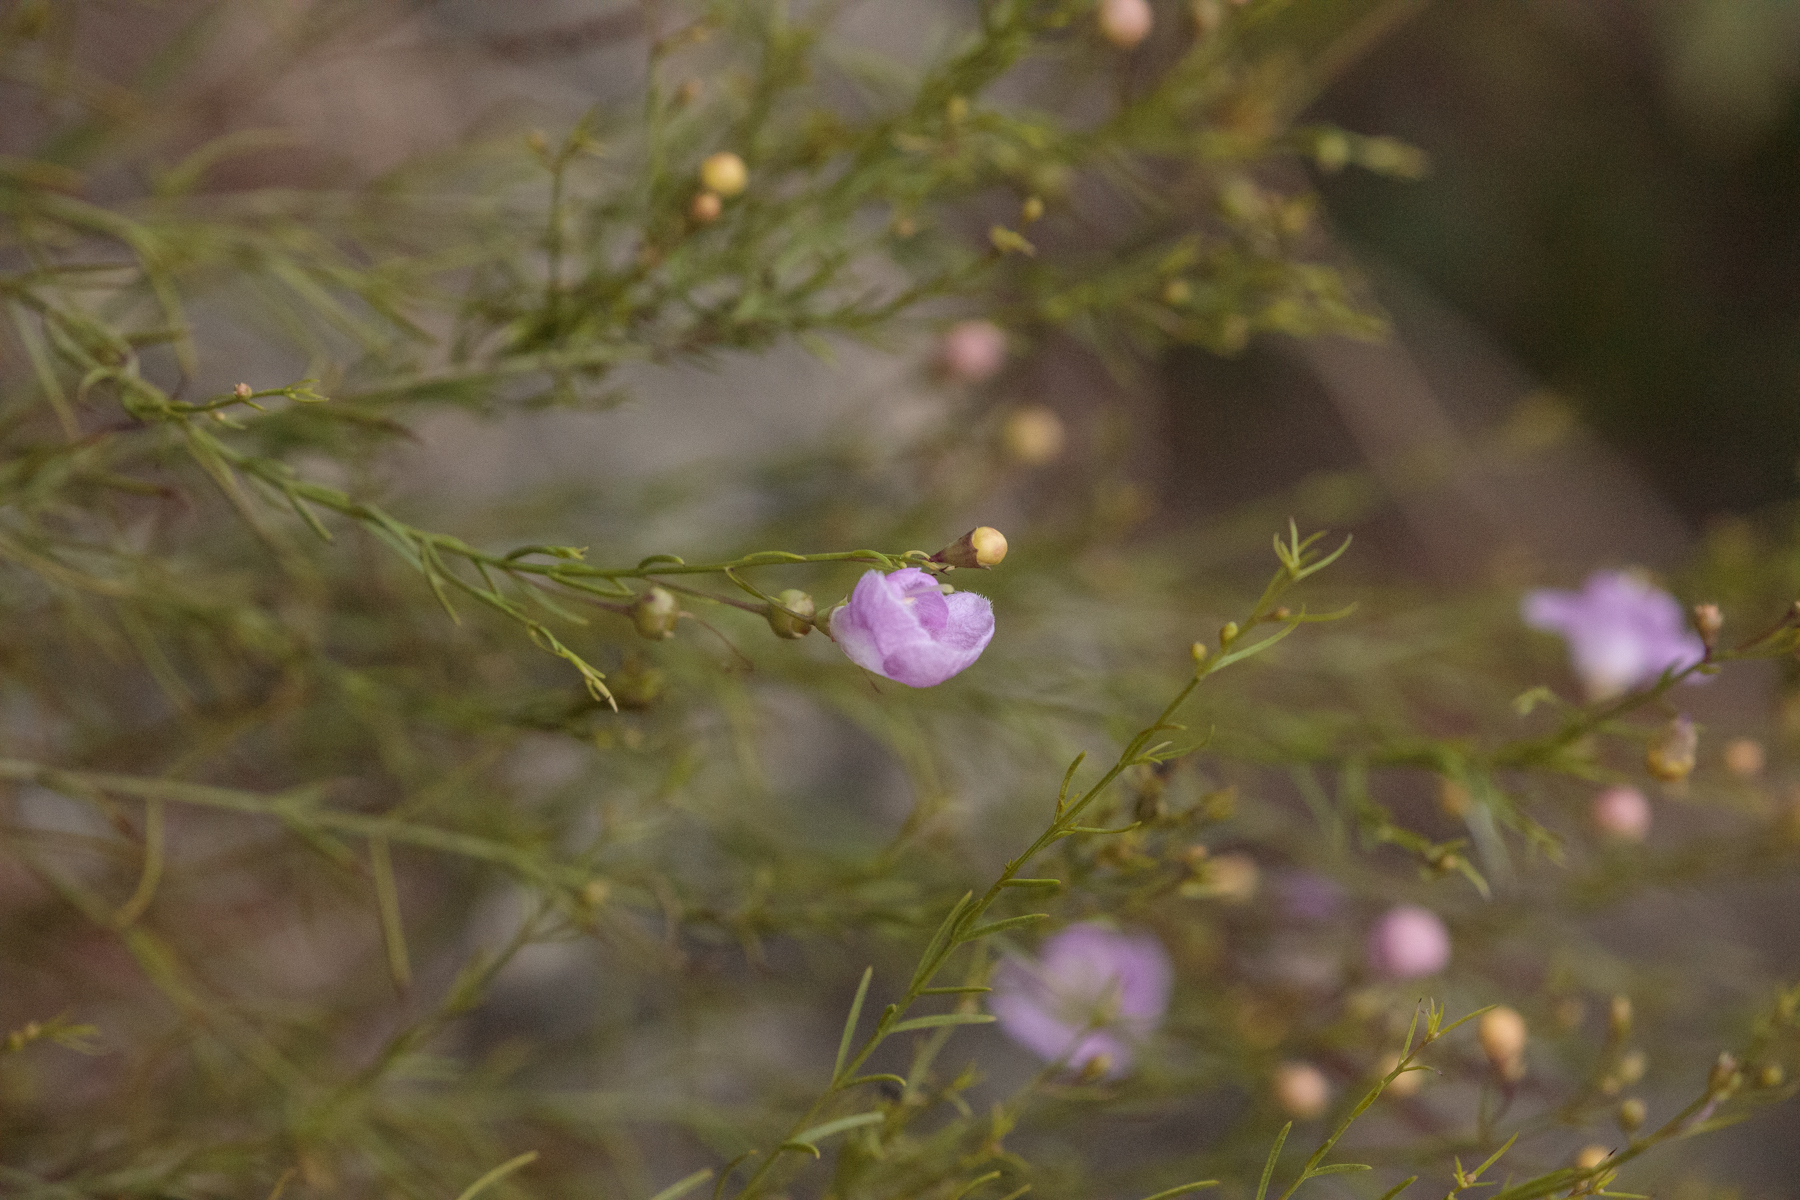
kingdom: Plantae
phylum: Tracheophyta
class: Magnoliopsida
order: Lamiales
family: Orobanchaceae
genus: Agalinis
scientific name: Agalinis edwardsiana
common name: Plateau-gerardia
